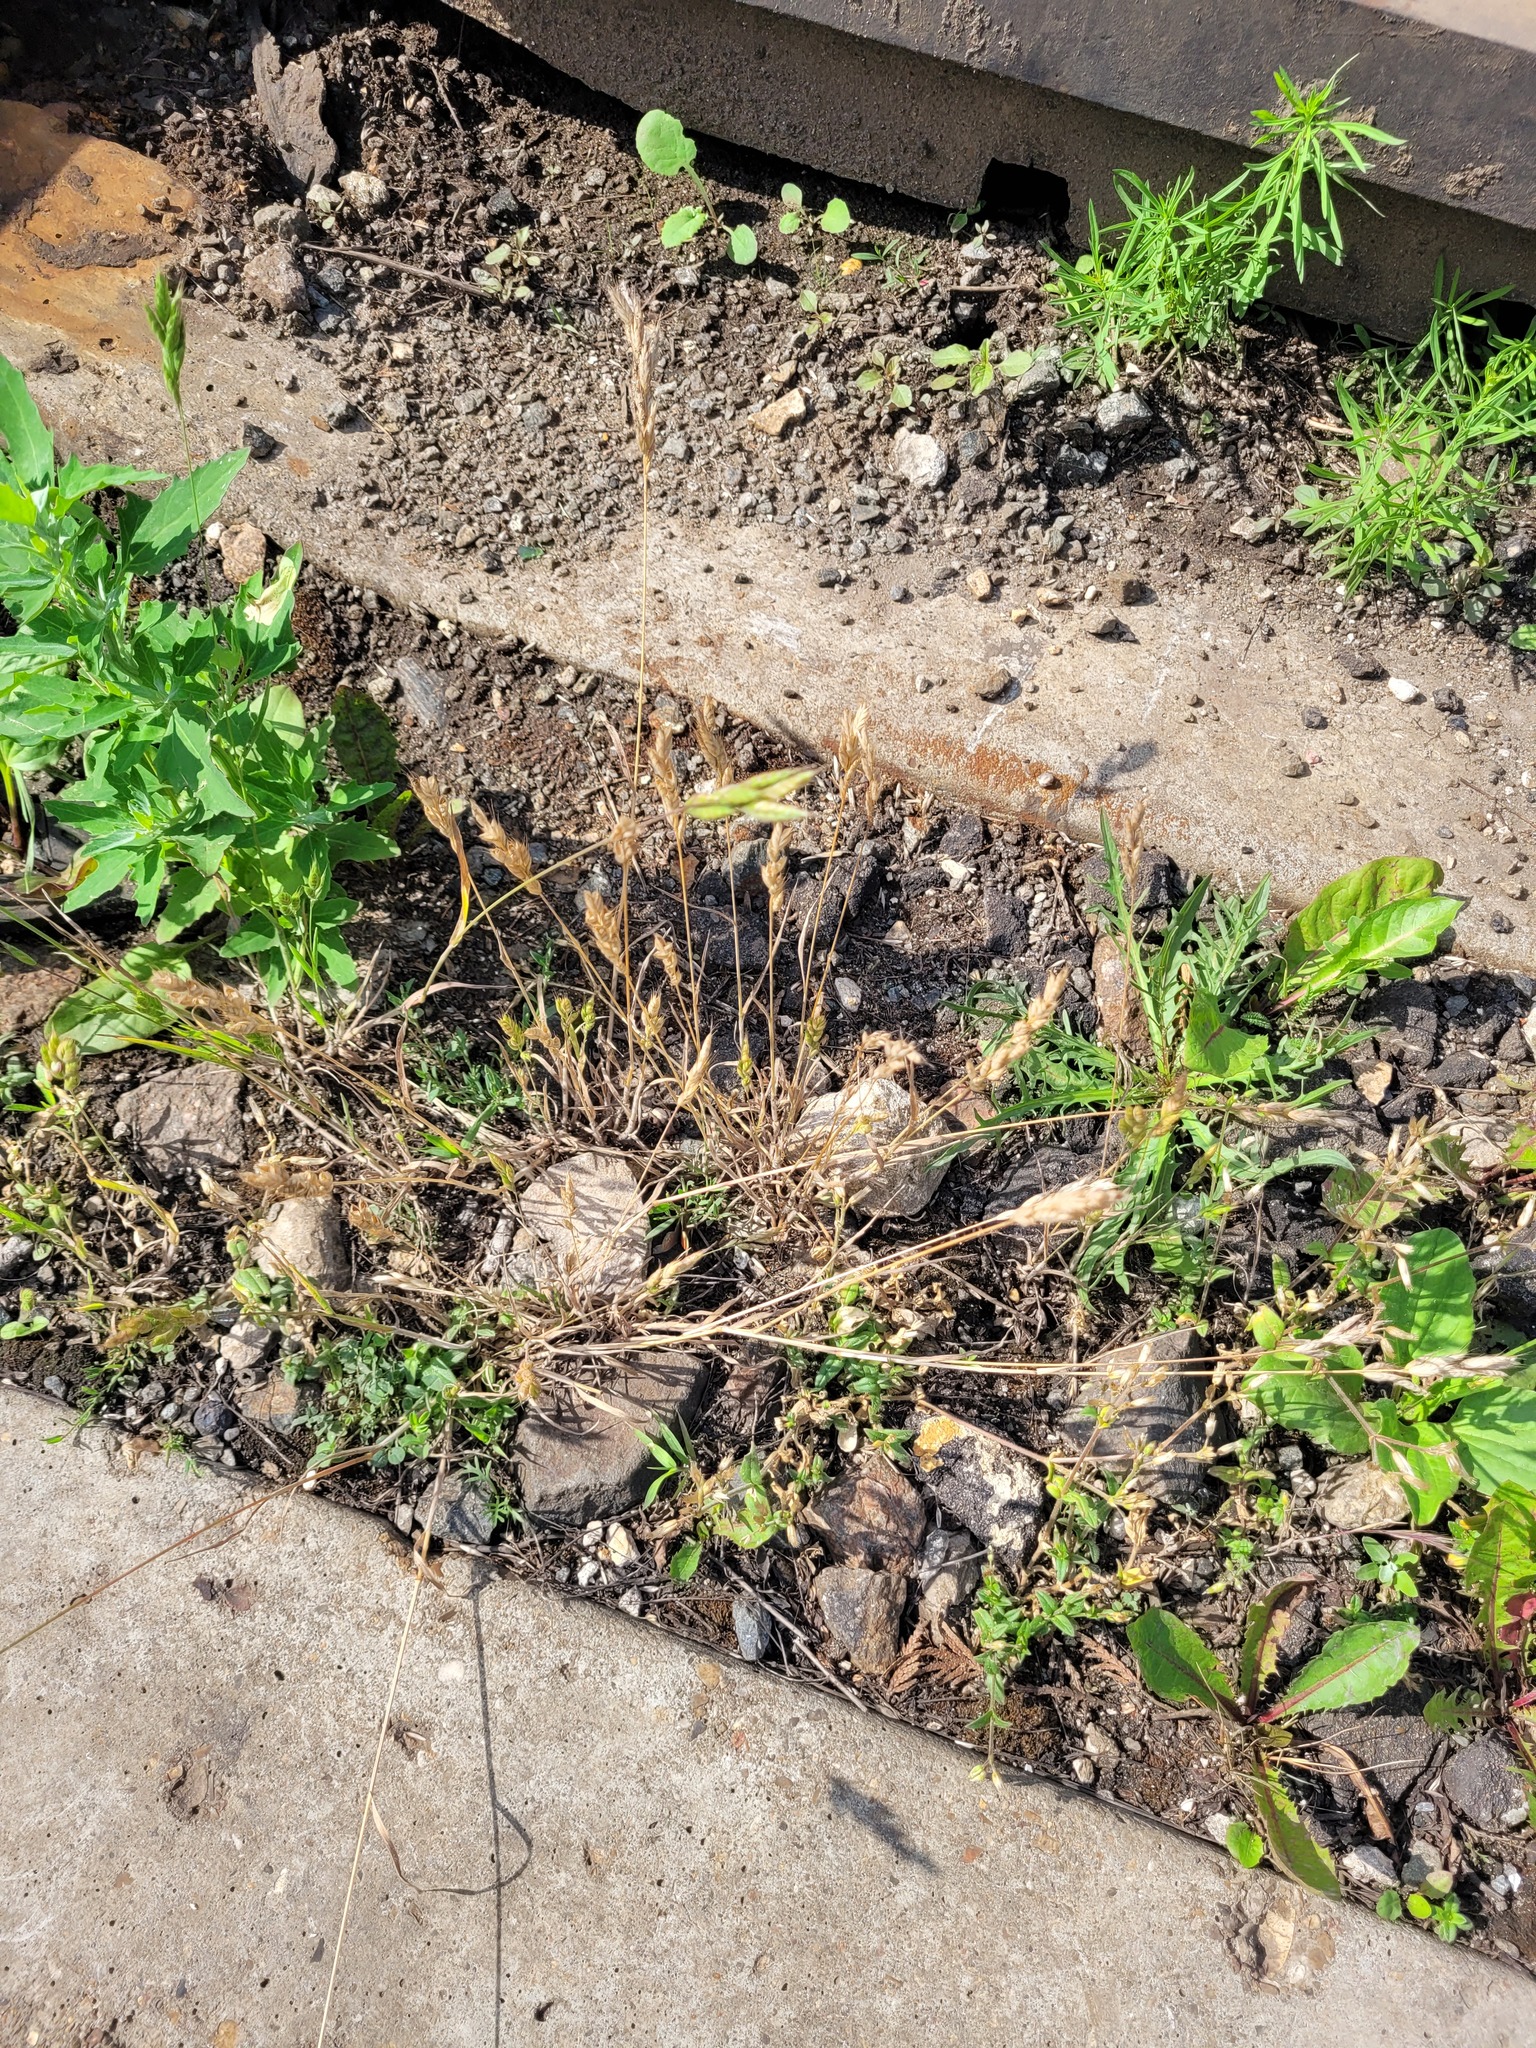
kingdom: Plantae
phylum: Tracheophyta
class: Liliopsida
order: Poales
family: Poaceae
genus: Bromus
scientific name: Bromus hordeaceus
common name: Soft brome
